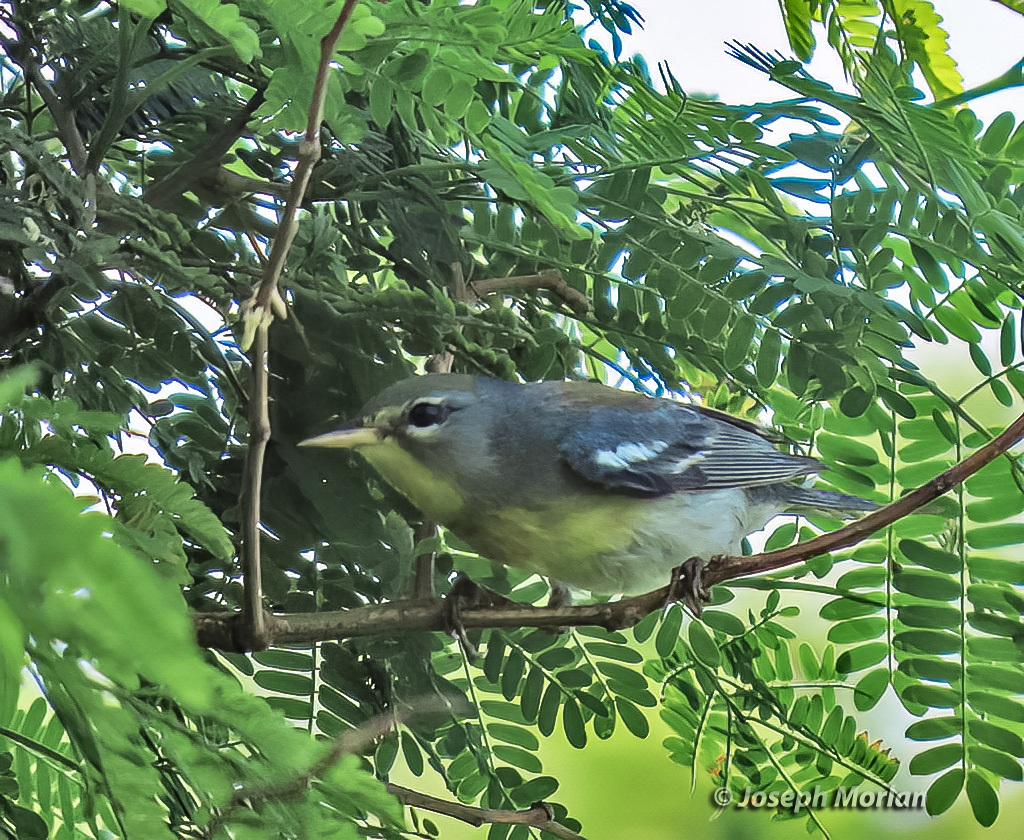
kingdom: Animalia
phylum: Chordata
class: Aves
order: Passeriformes
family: Parulidae
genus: Setophaga
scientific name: Setophaga americana
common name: Northern parula
